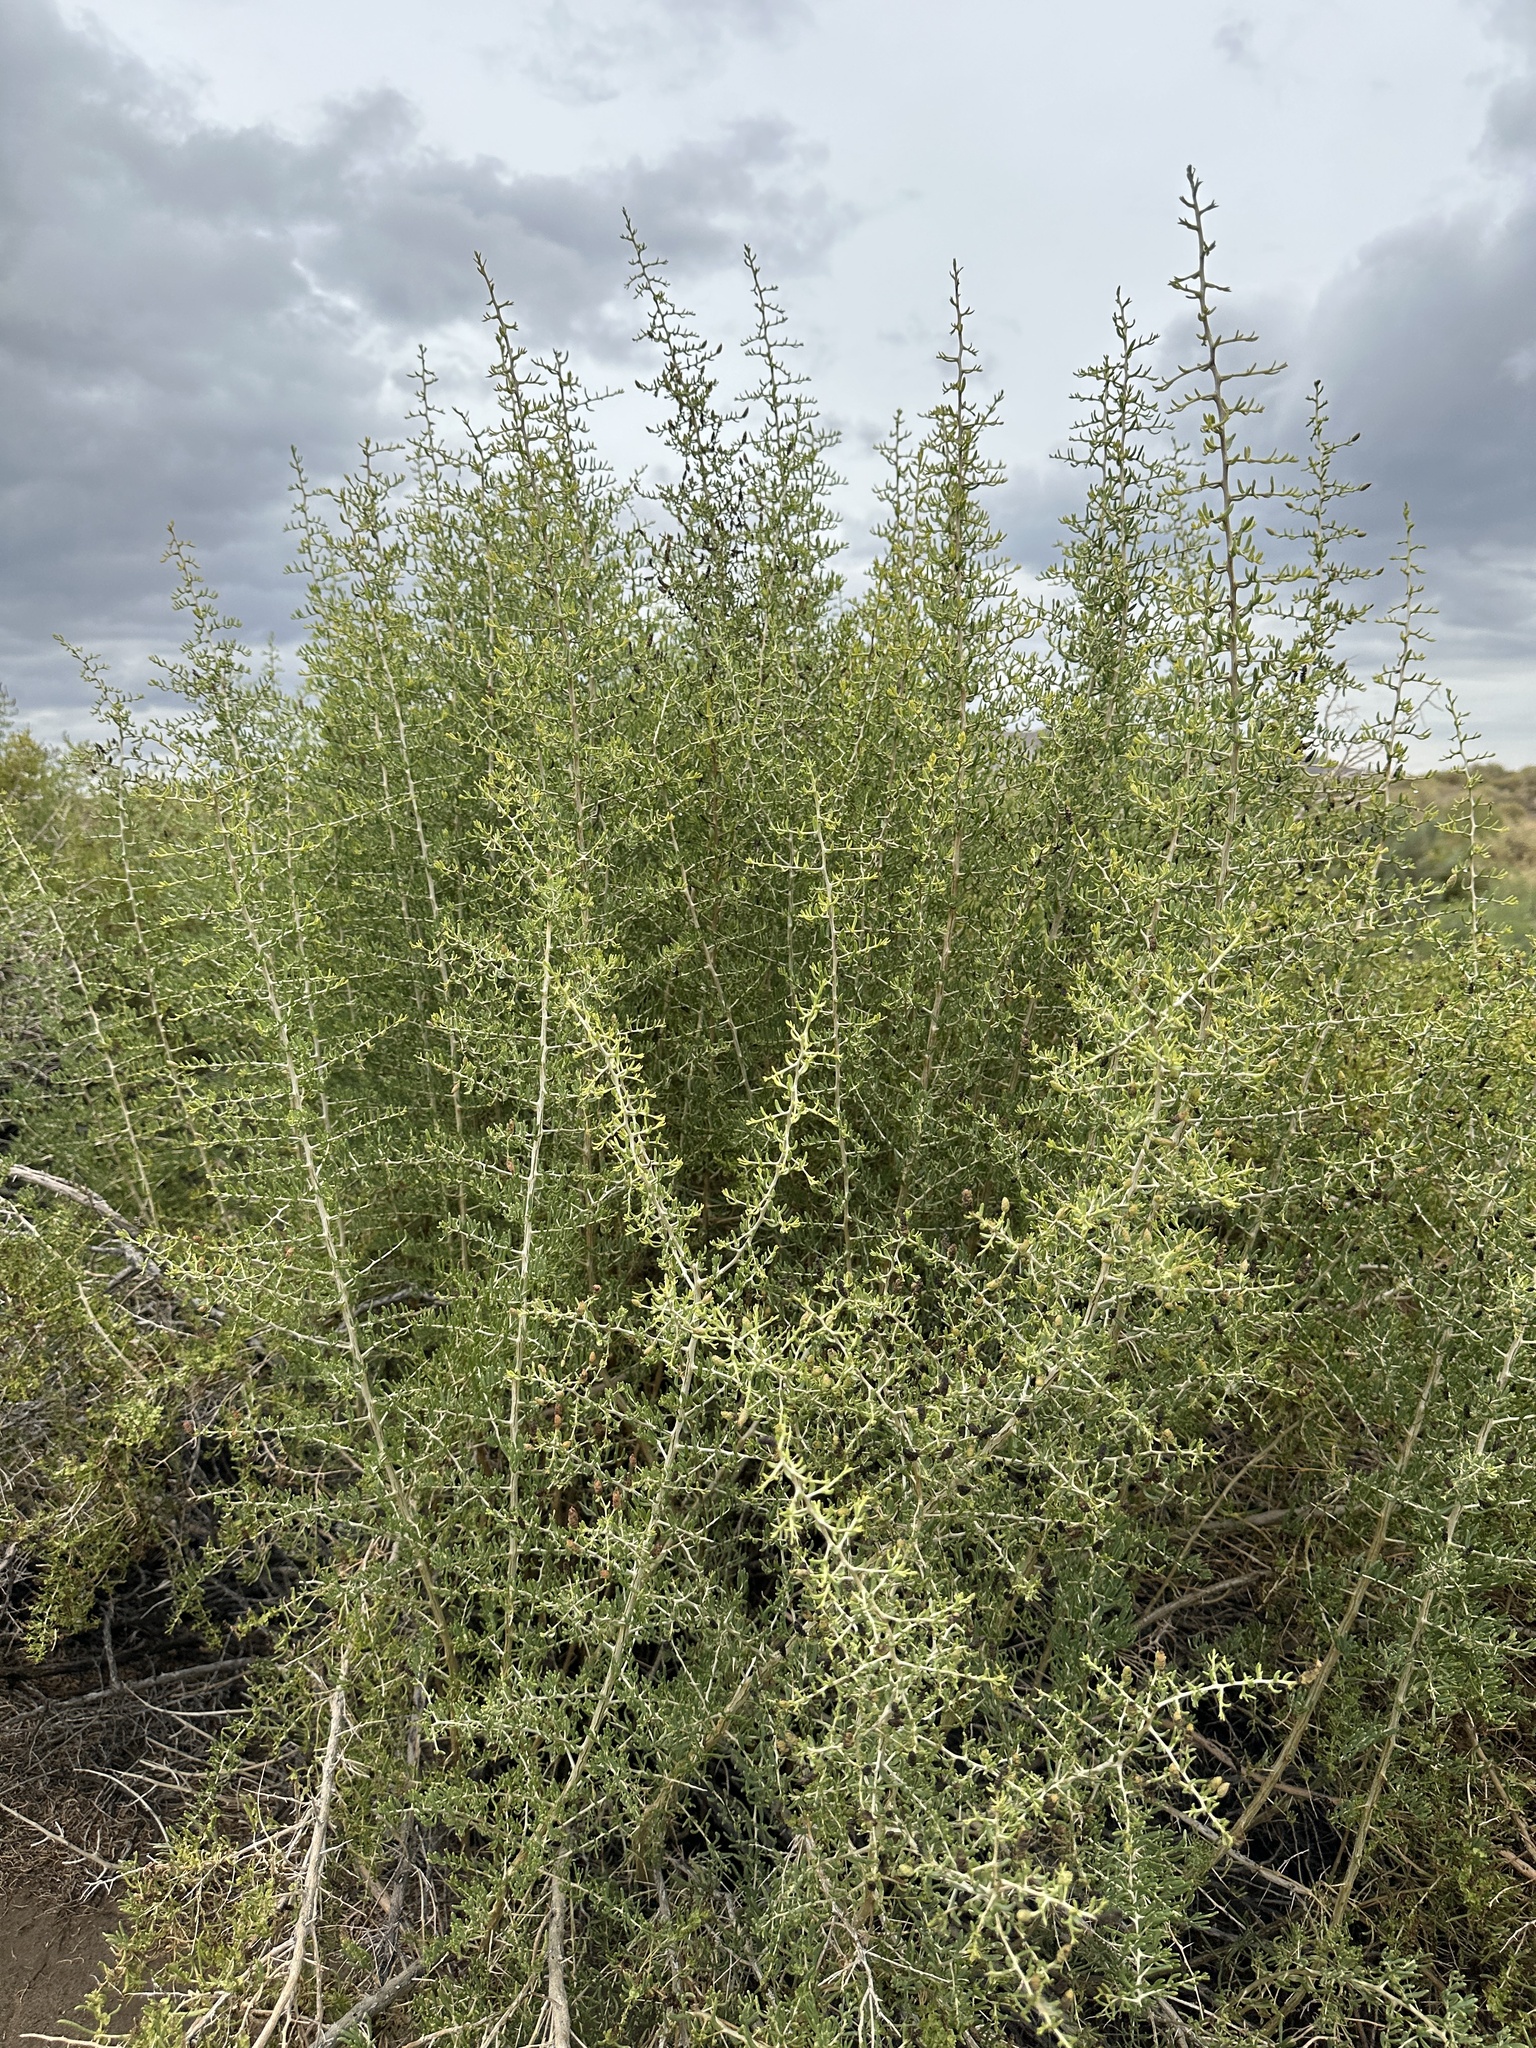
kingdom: Plantae
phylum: Tracheophyta
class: Magnoliopsida
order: Caryophyllales
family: Sarcobataceae
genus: Sarcobatus
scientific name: Sarcobatus vermiculatus
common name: Greasewood
